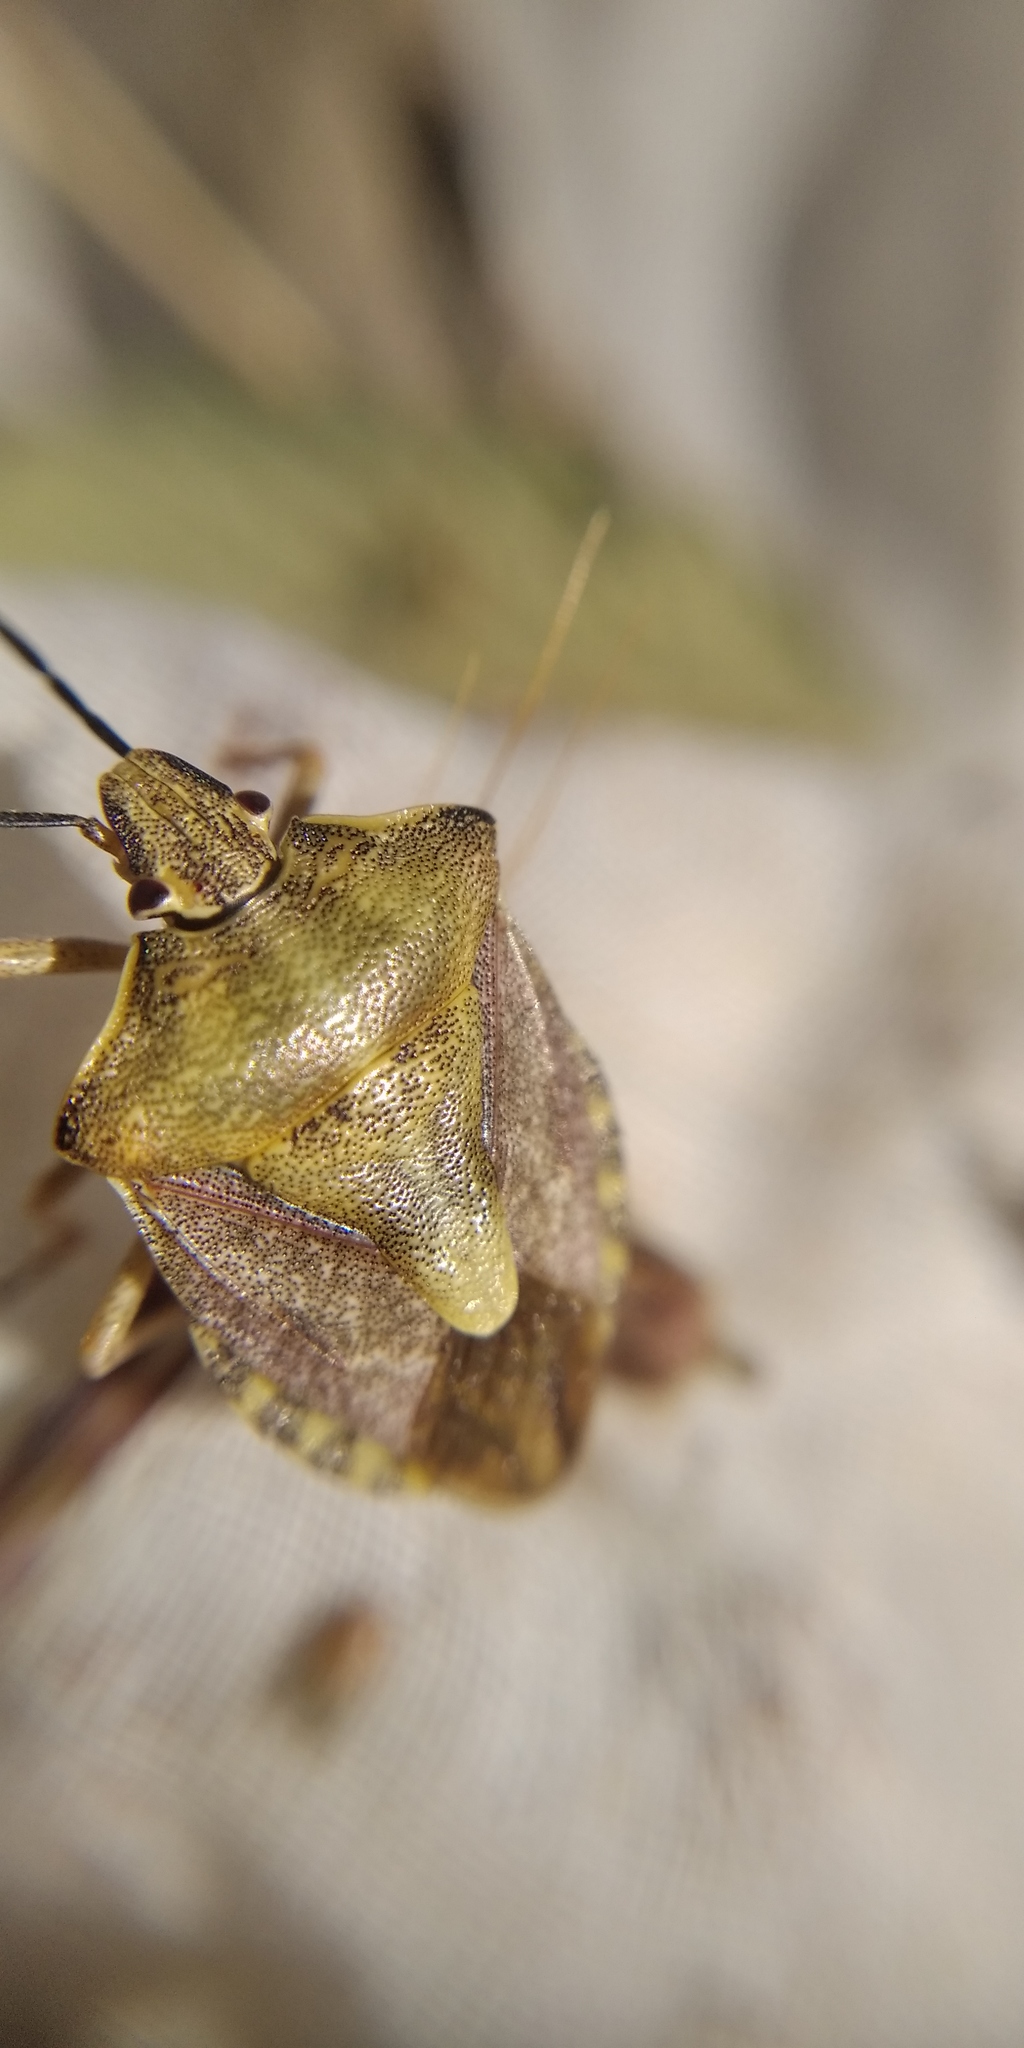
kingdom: Animalia
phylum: Arthropoda
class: Insecta
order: Hemiptera
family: Pentatomidae
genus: Carpocoris
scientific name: Carpocoris purpureipennis
